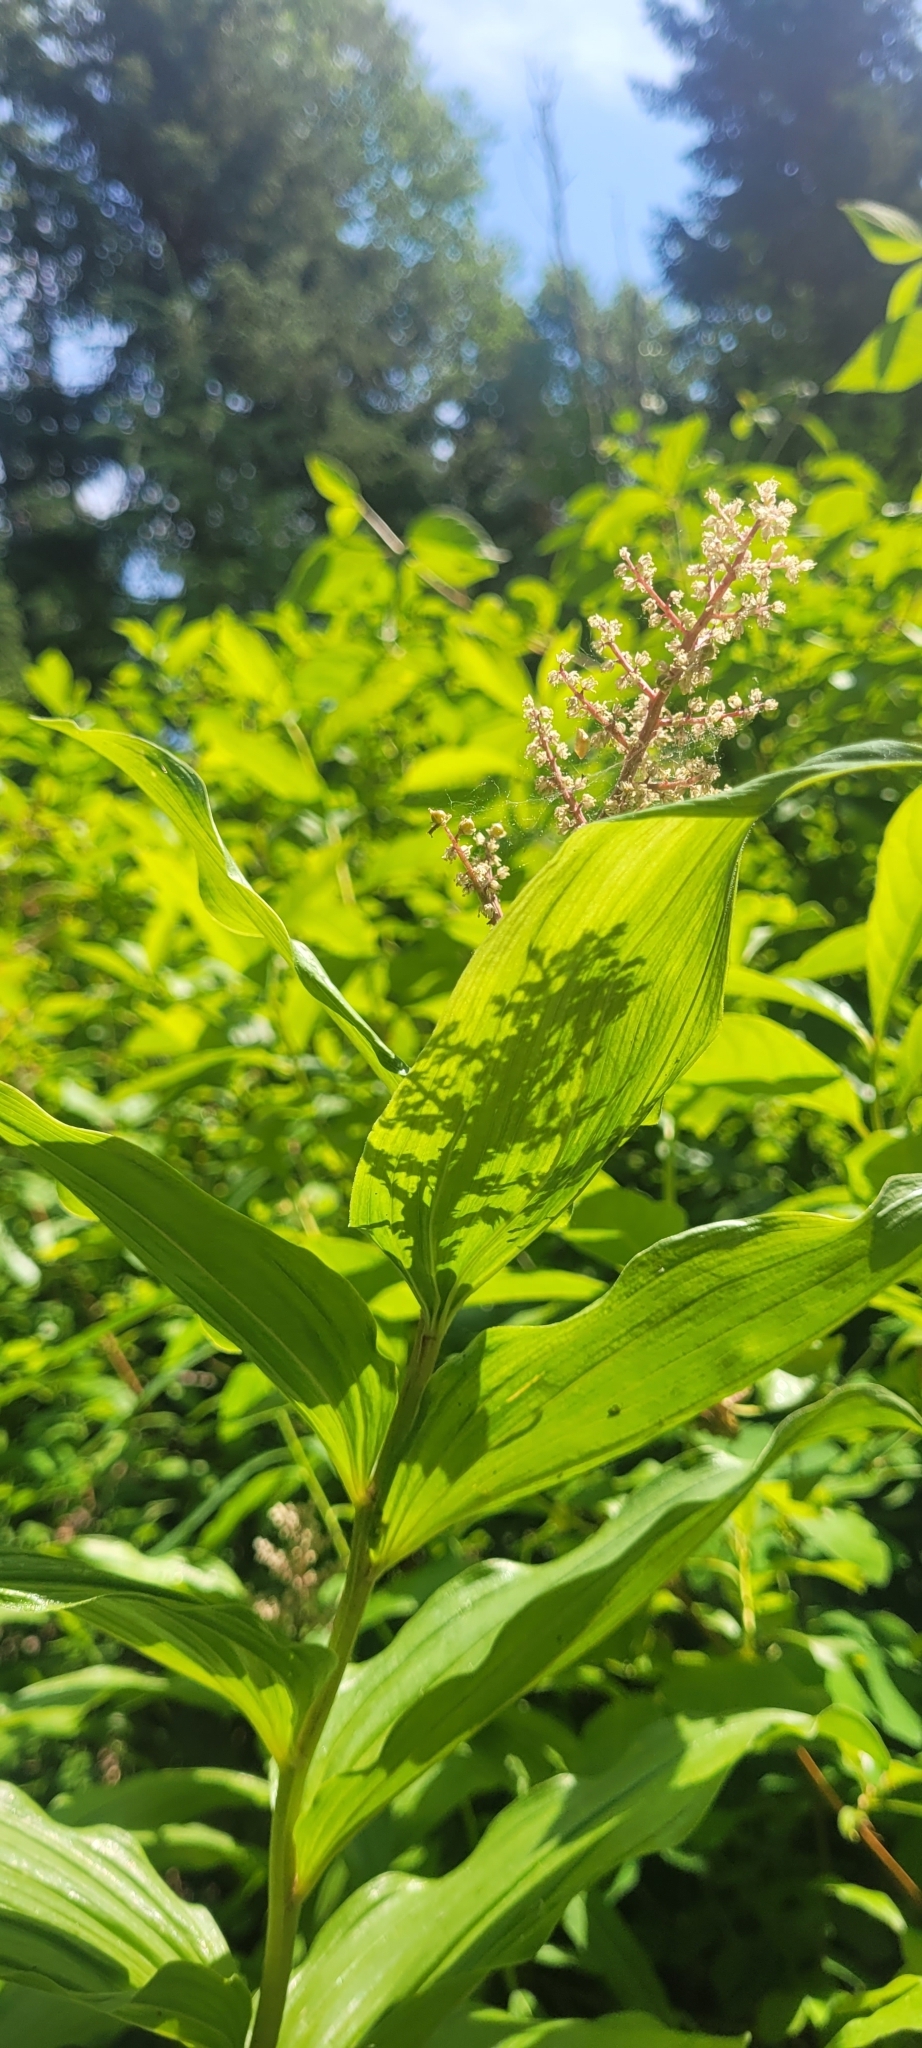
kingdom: Plantae
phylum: Tracheophyta
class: Liliopsida
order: Asparagales
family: Asparagaceae
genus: Maianthemum
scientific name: Maianthemum racemosum
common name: False spikenard
